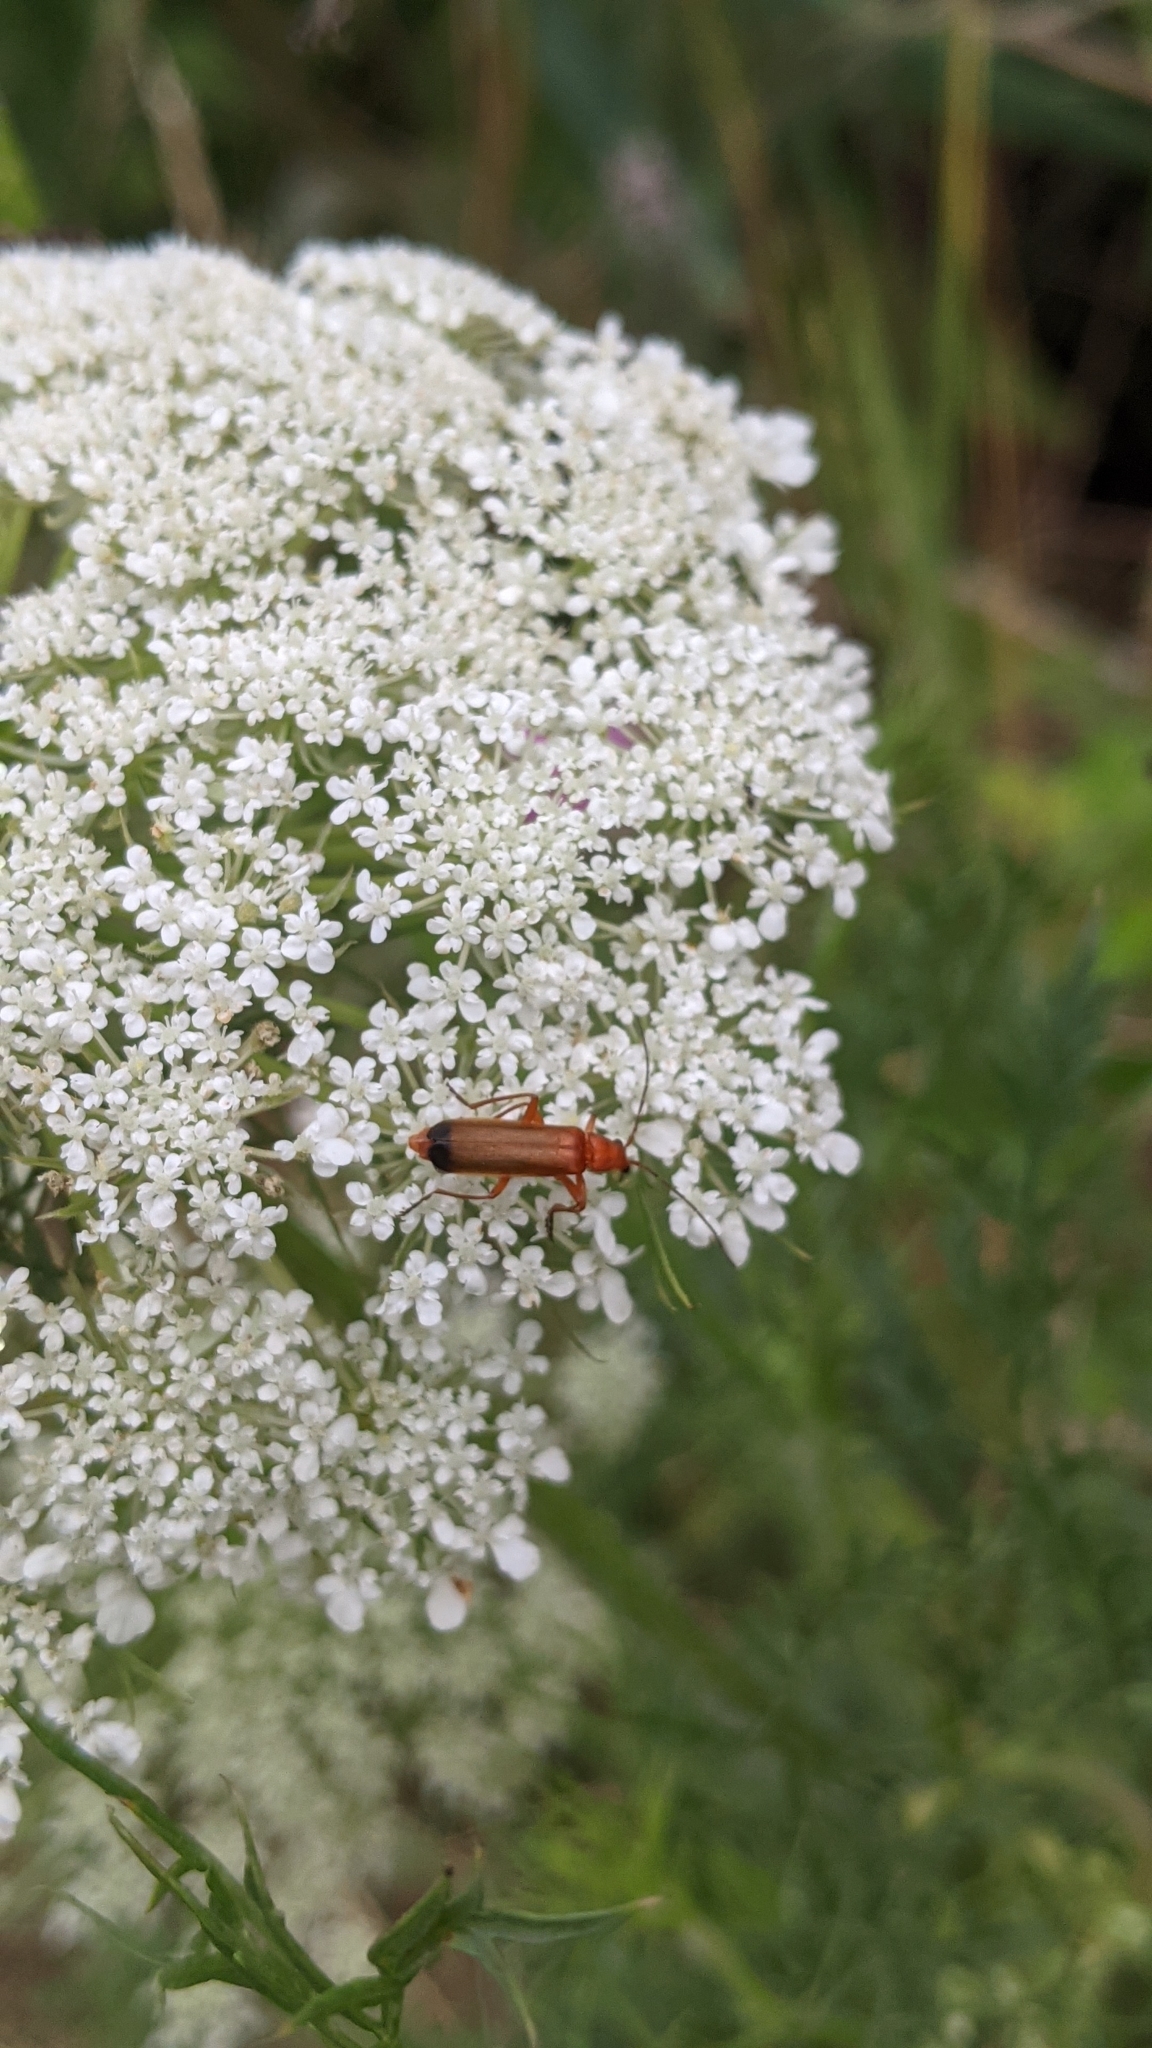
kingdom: Animalia
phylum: Arthropoda
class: Insecta
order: Coleoptera
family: Cantharidae
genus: Rhagonycha
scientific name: Rhagonycha fulva
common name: Common red soldier beetle
